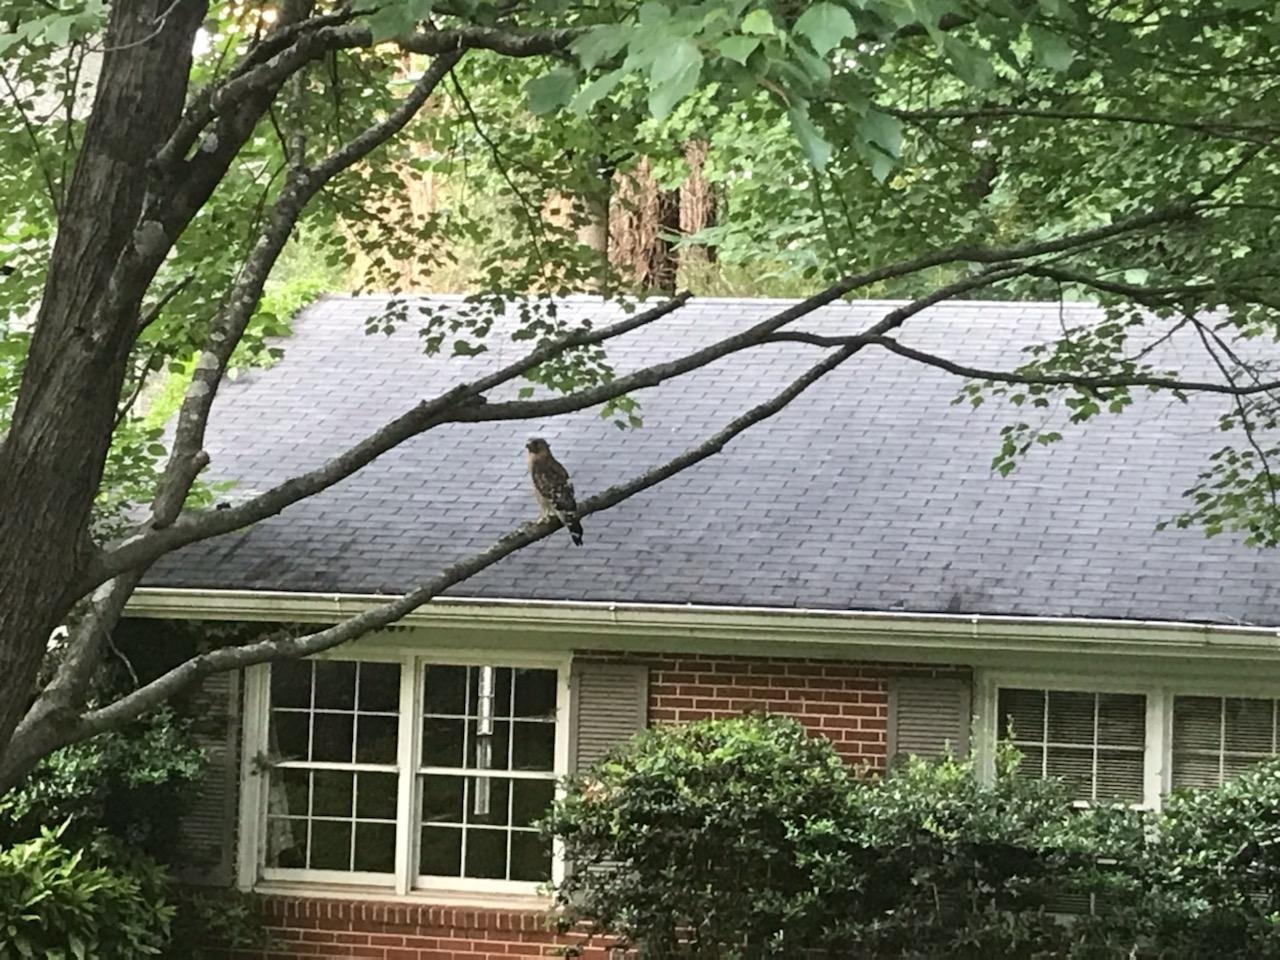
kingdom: Animalia
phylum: Chordata
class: Aves
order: Accipitriformes
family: Accipitridae
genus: Buteo
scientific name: Buteo lineatus
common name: Red-shouldered hawk
